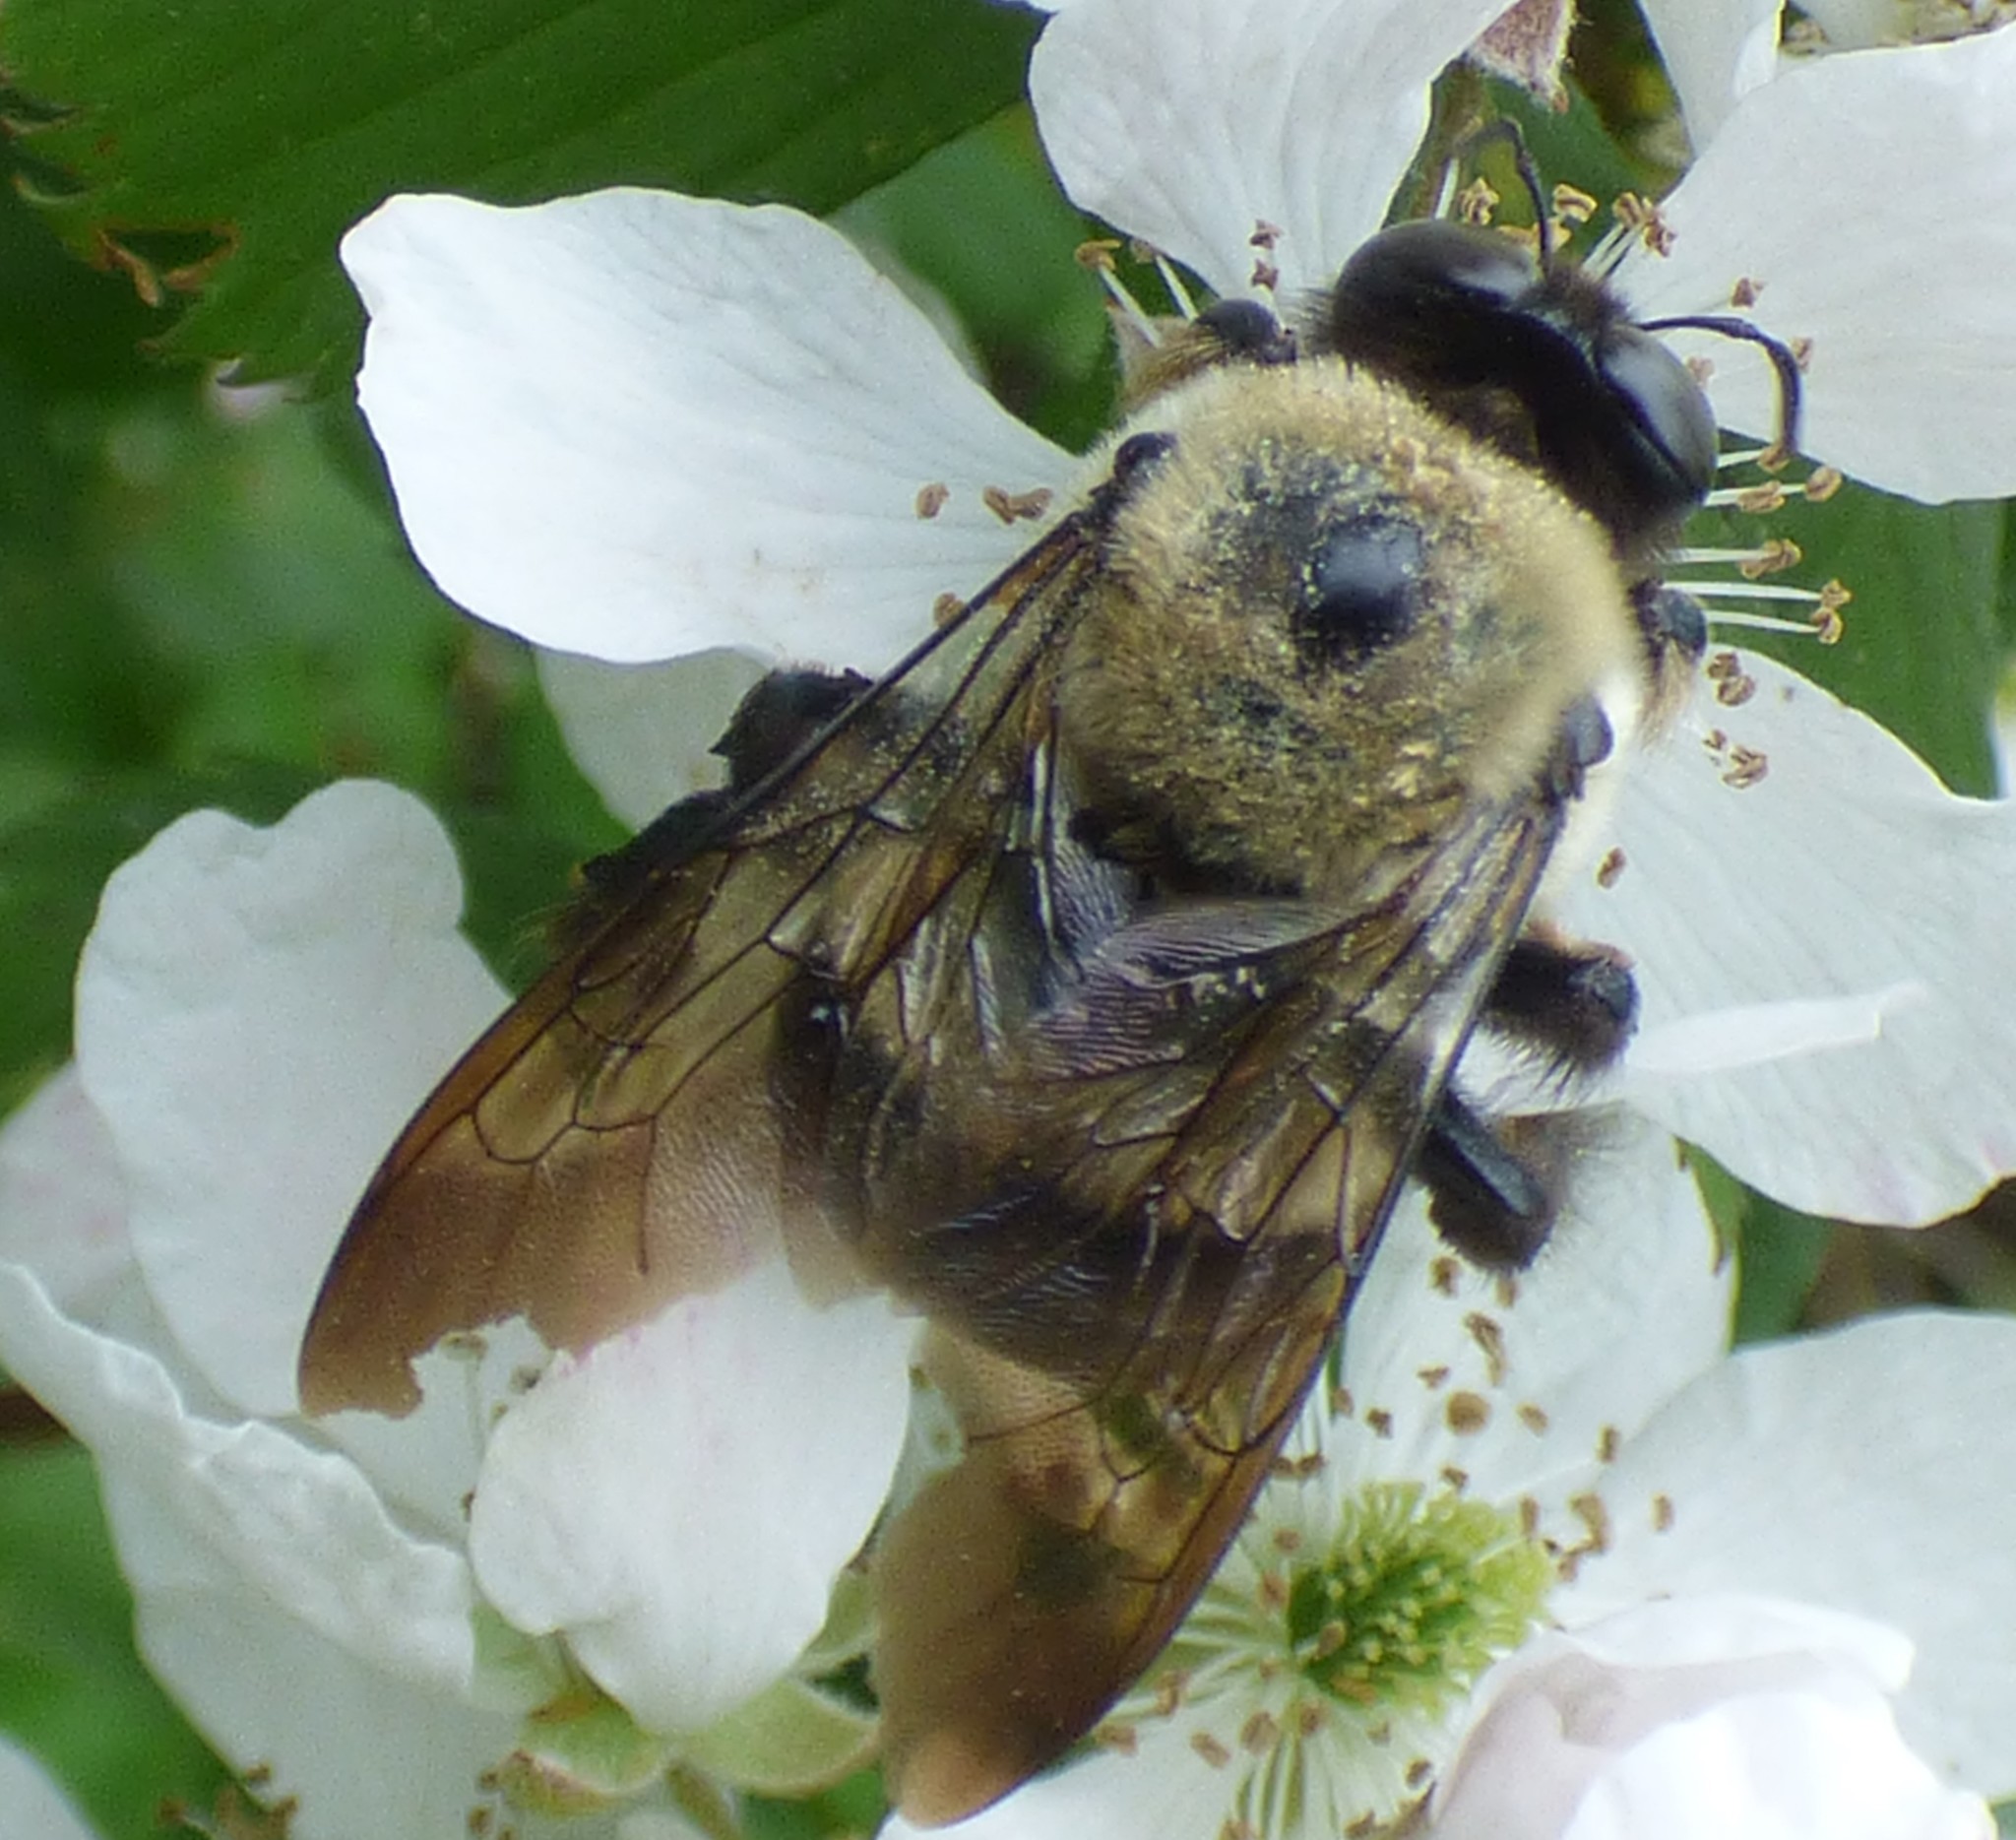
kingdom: Animalia
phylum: Arthropoda
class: Insecta
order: Hymenoptera
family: Apidae
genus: Xylocopa
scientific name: Xylocopa virginica
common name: Carpenter bee
